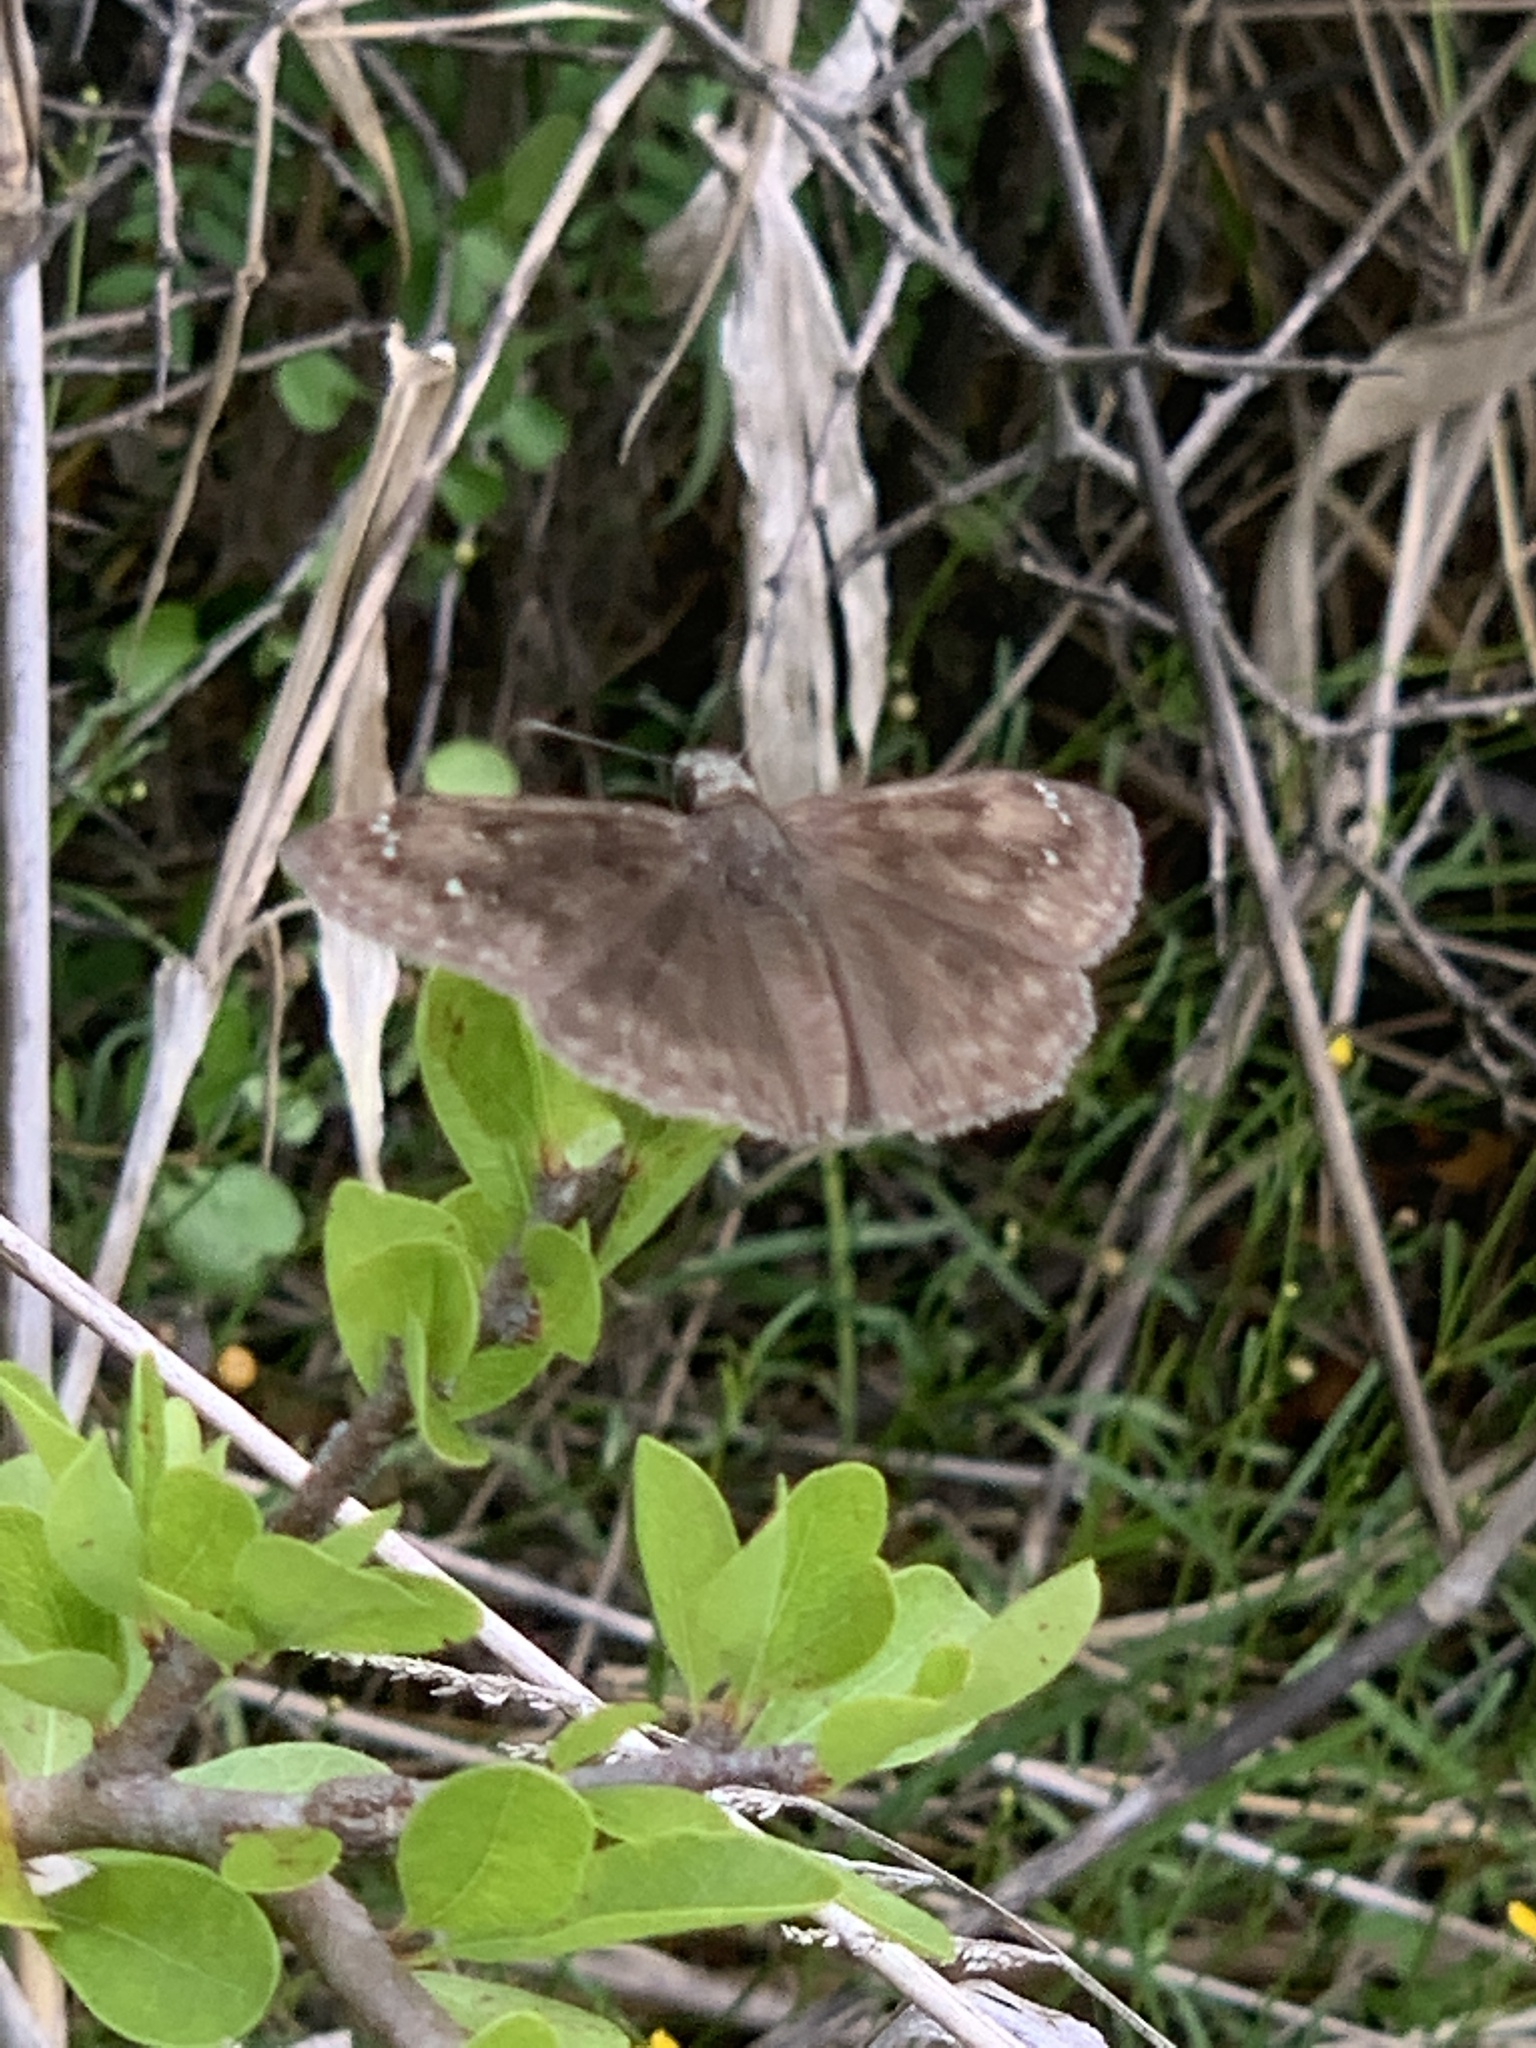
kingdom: Animalia
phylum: Arthropoda
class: Insecta
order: Lepidoptera
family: Hesperiidae
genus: Erynnis
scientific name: Erynnis horatius
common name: Horace's duskywing
